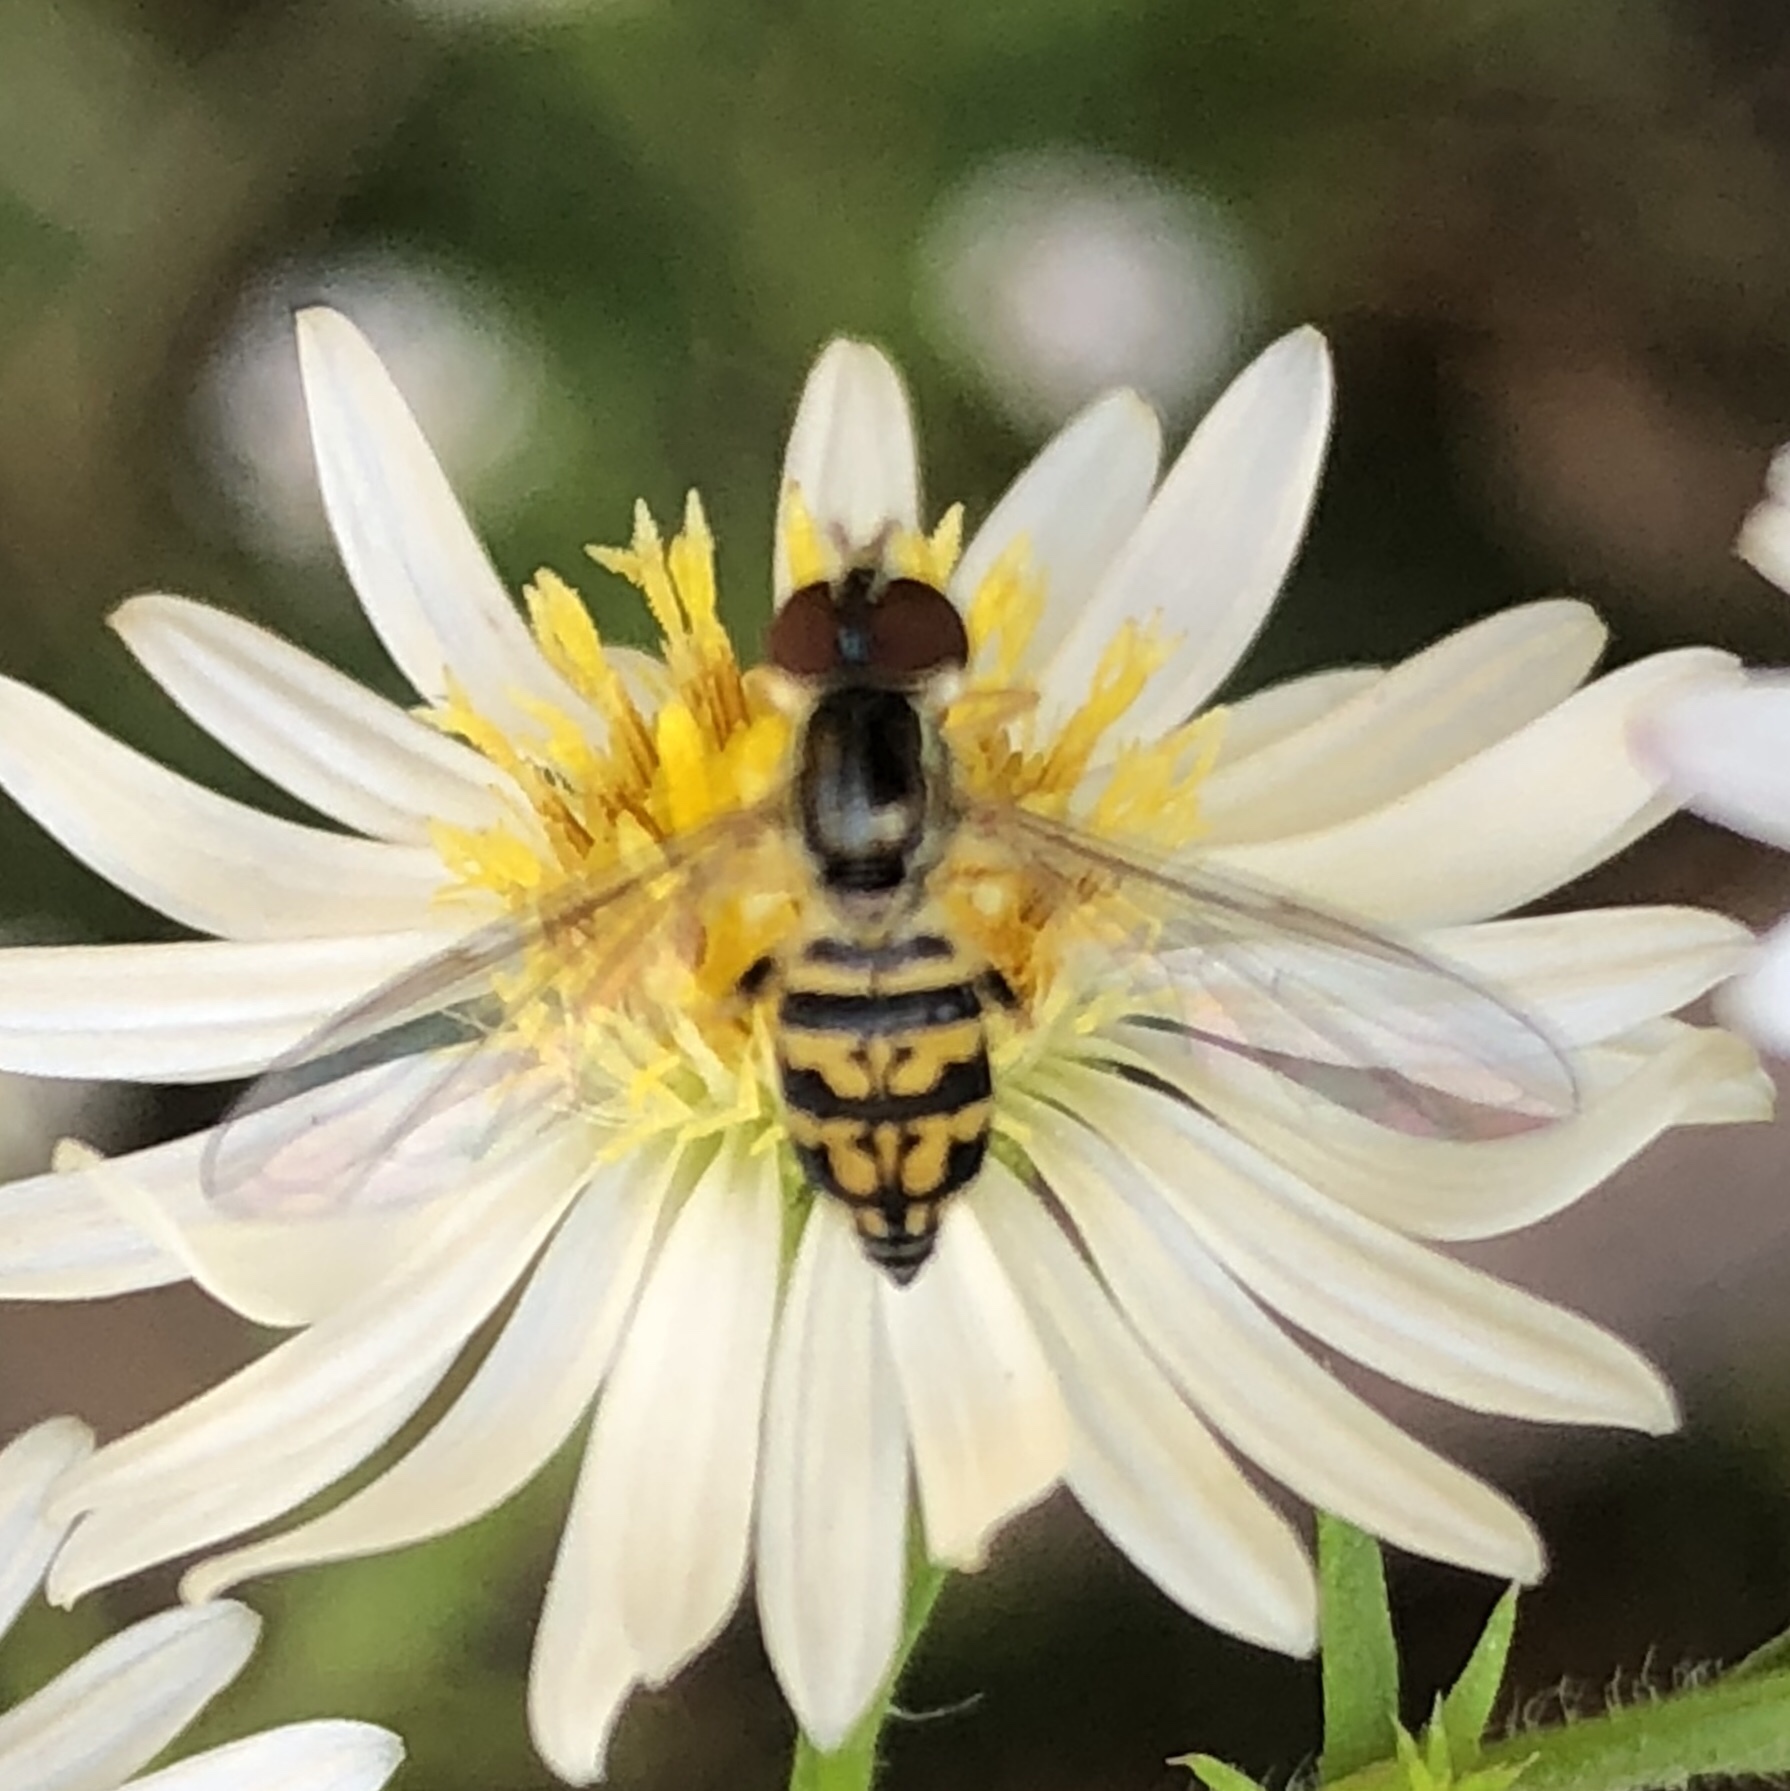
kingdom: Animalia
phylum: Arthropoda
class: Insecta
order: Diptera
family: Syrphidae
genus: Toxomerus
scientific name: Toxomerus geminatus
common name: Eastern calligrapher
